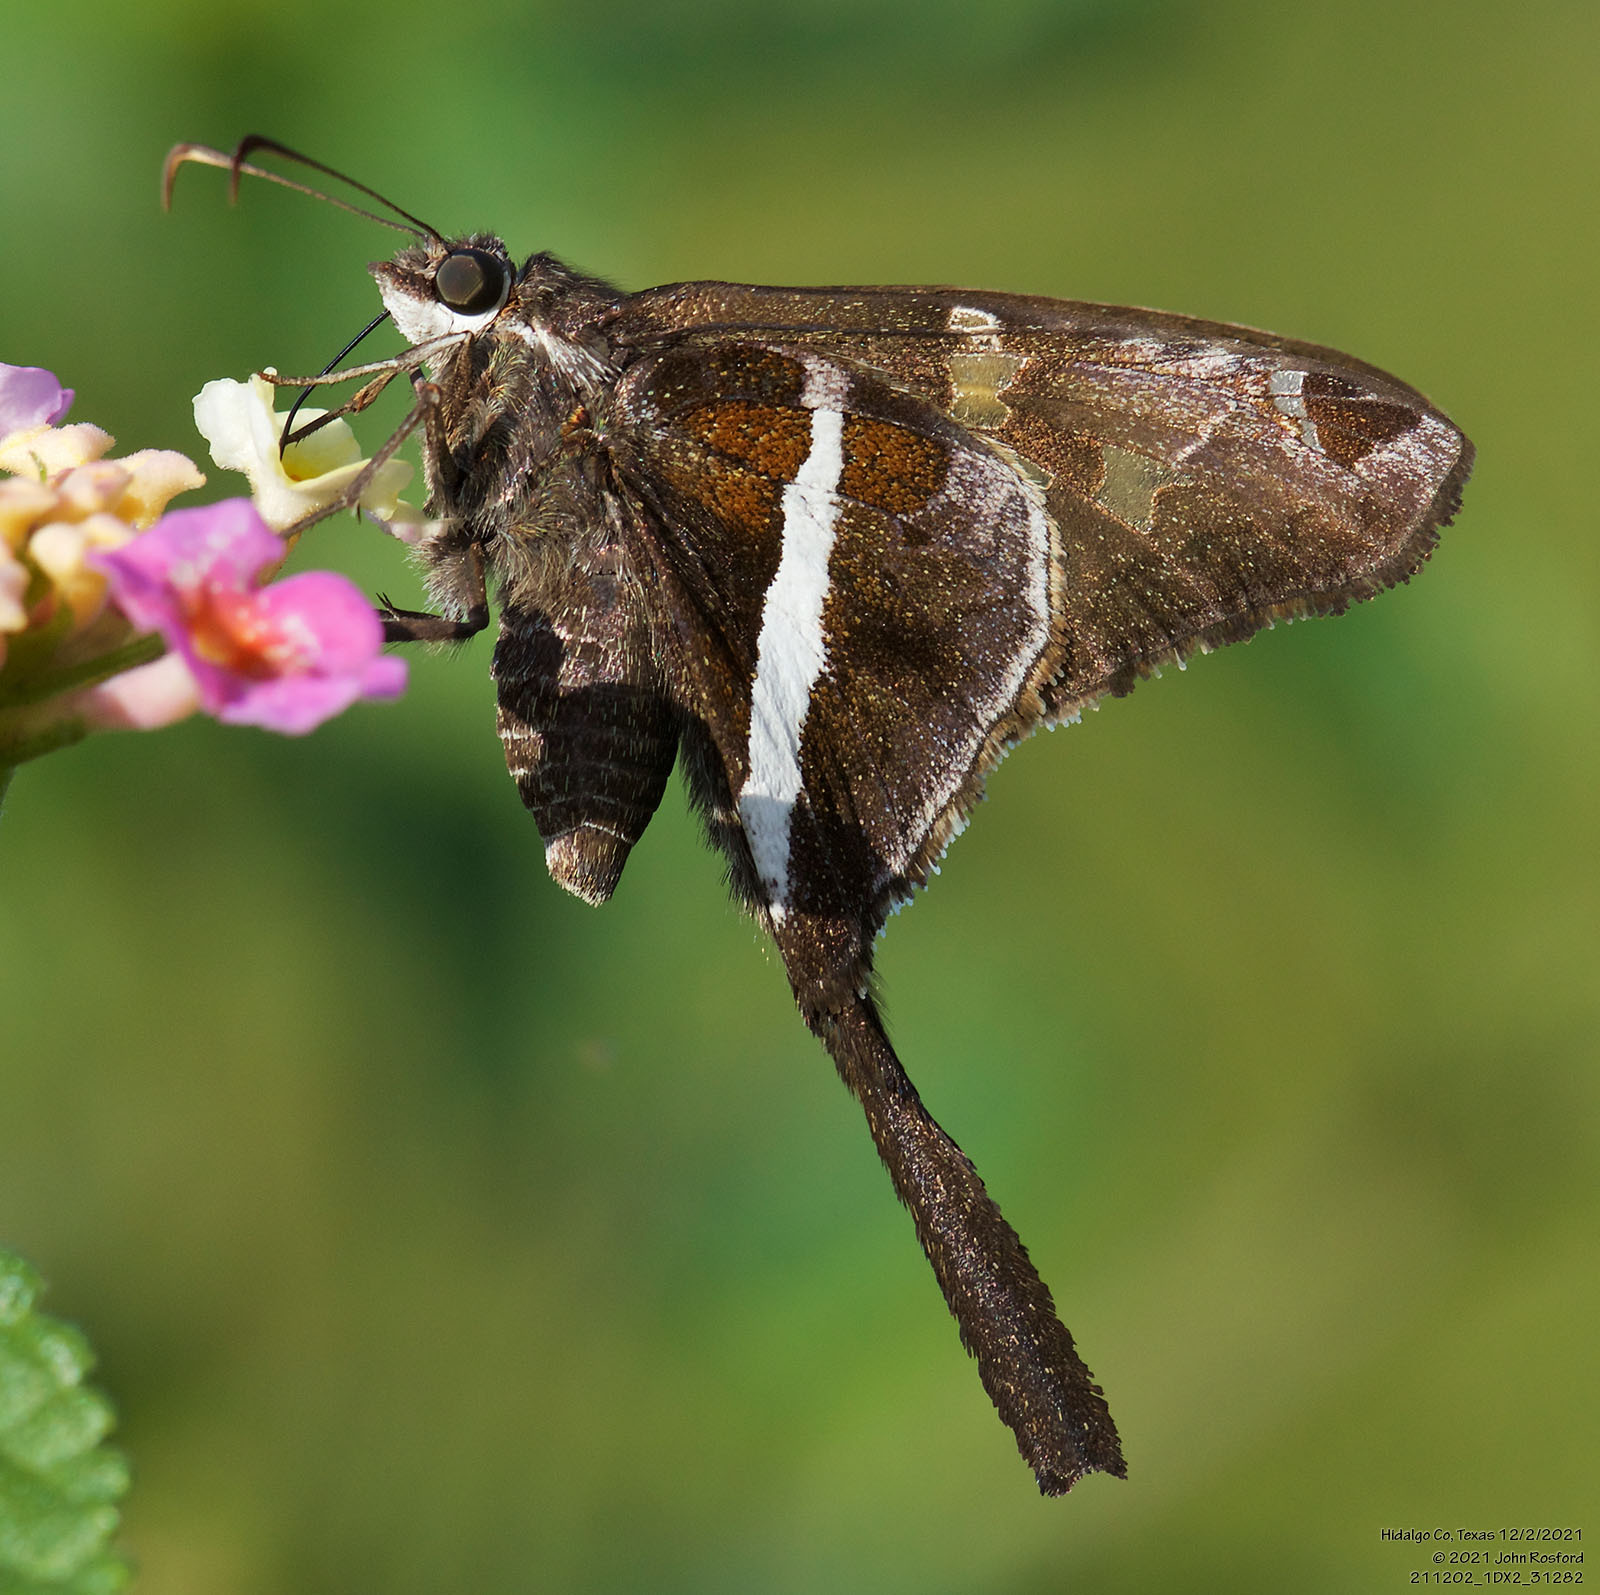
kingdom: Animalia
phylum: Arthropoda
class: Insecta
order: Lepidoptera
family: Hesperiidae
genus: Chioides
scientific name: Chioides catillus
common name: Silverbanded skipper
